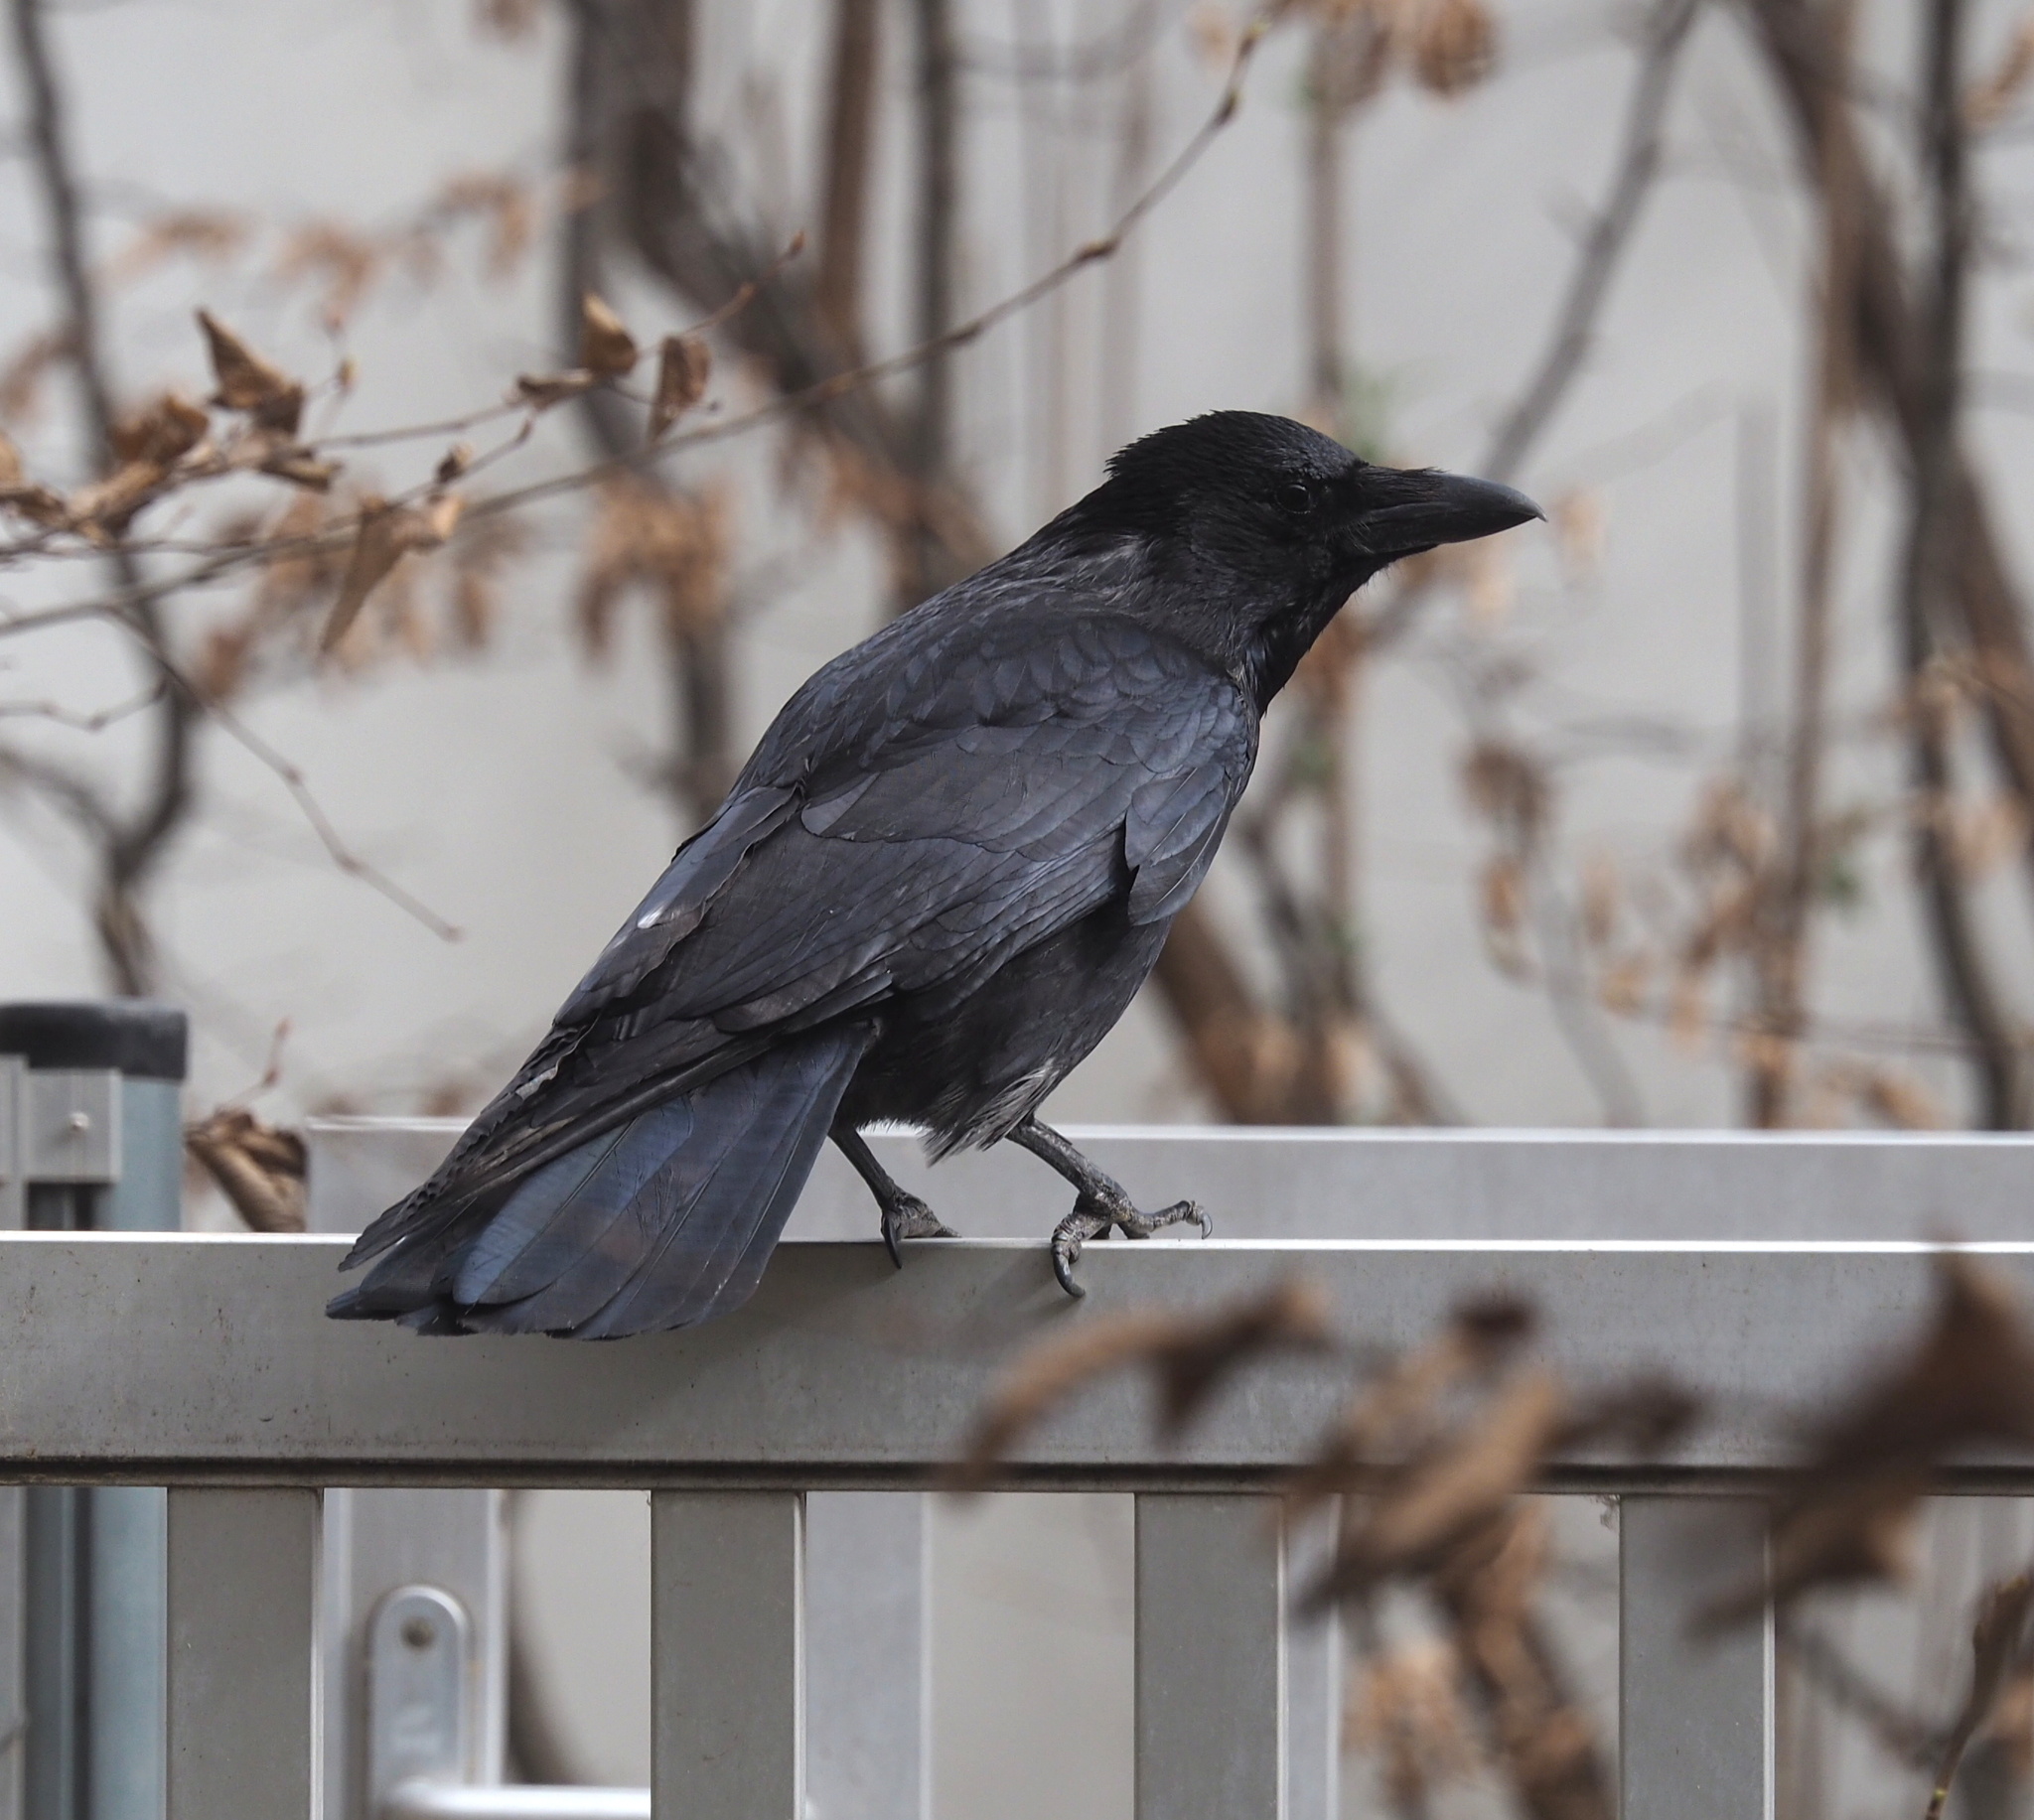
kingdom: Animalia
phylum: Chordata
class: Aves
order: Passeriformes
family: Corvidae
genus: Corvus
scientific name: Corvus
